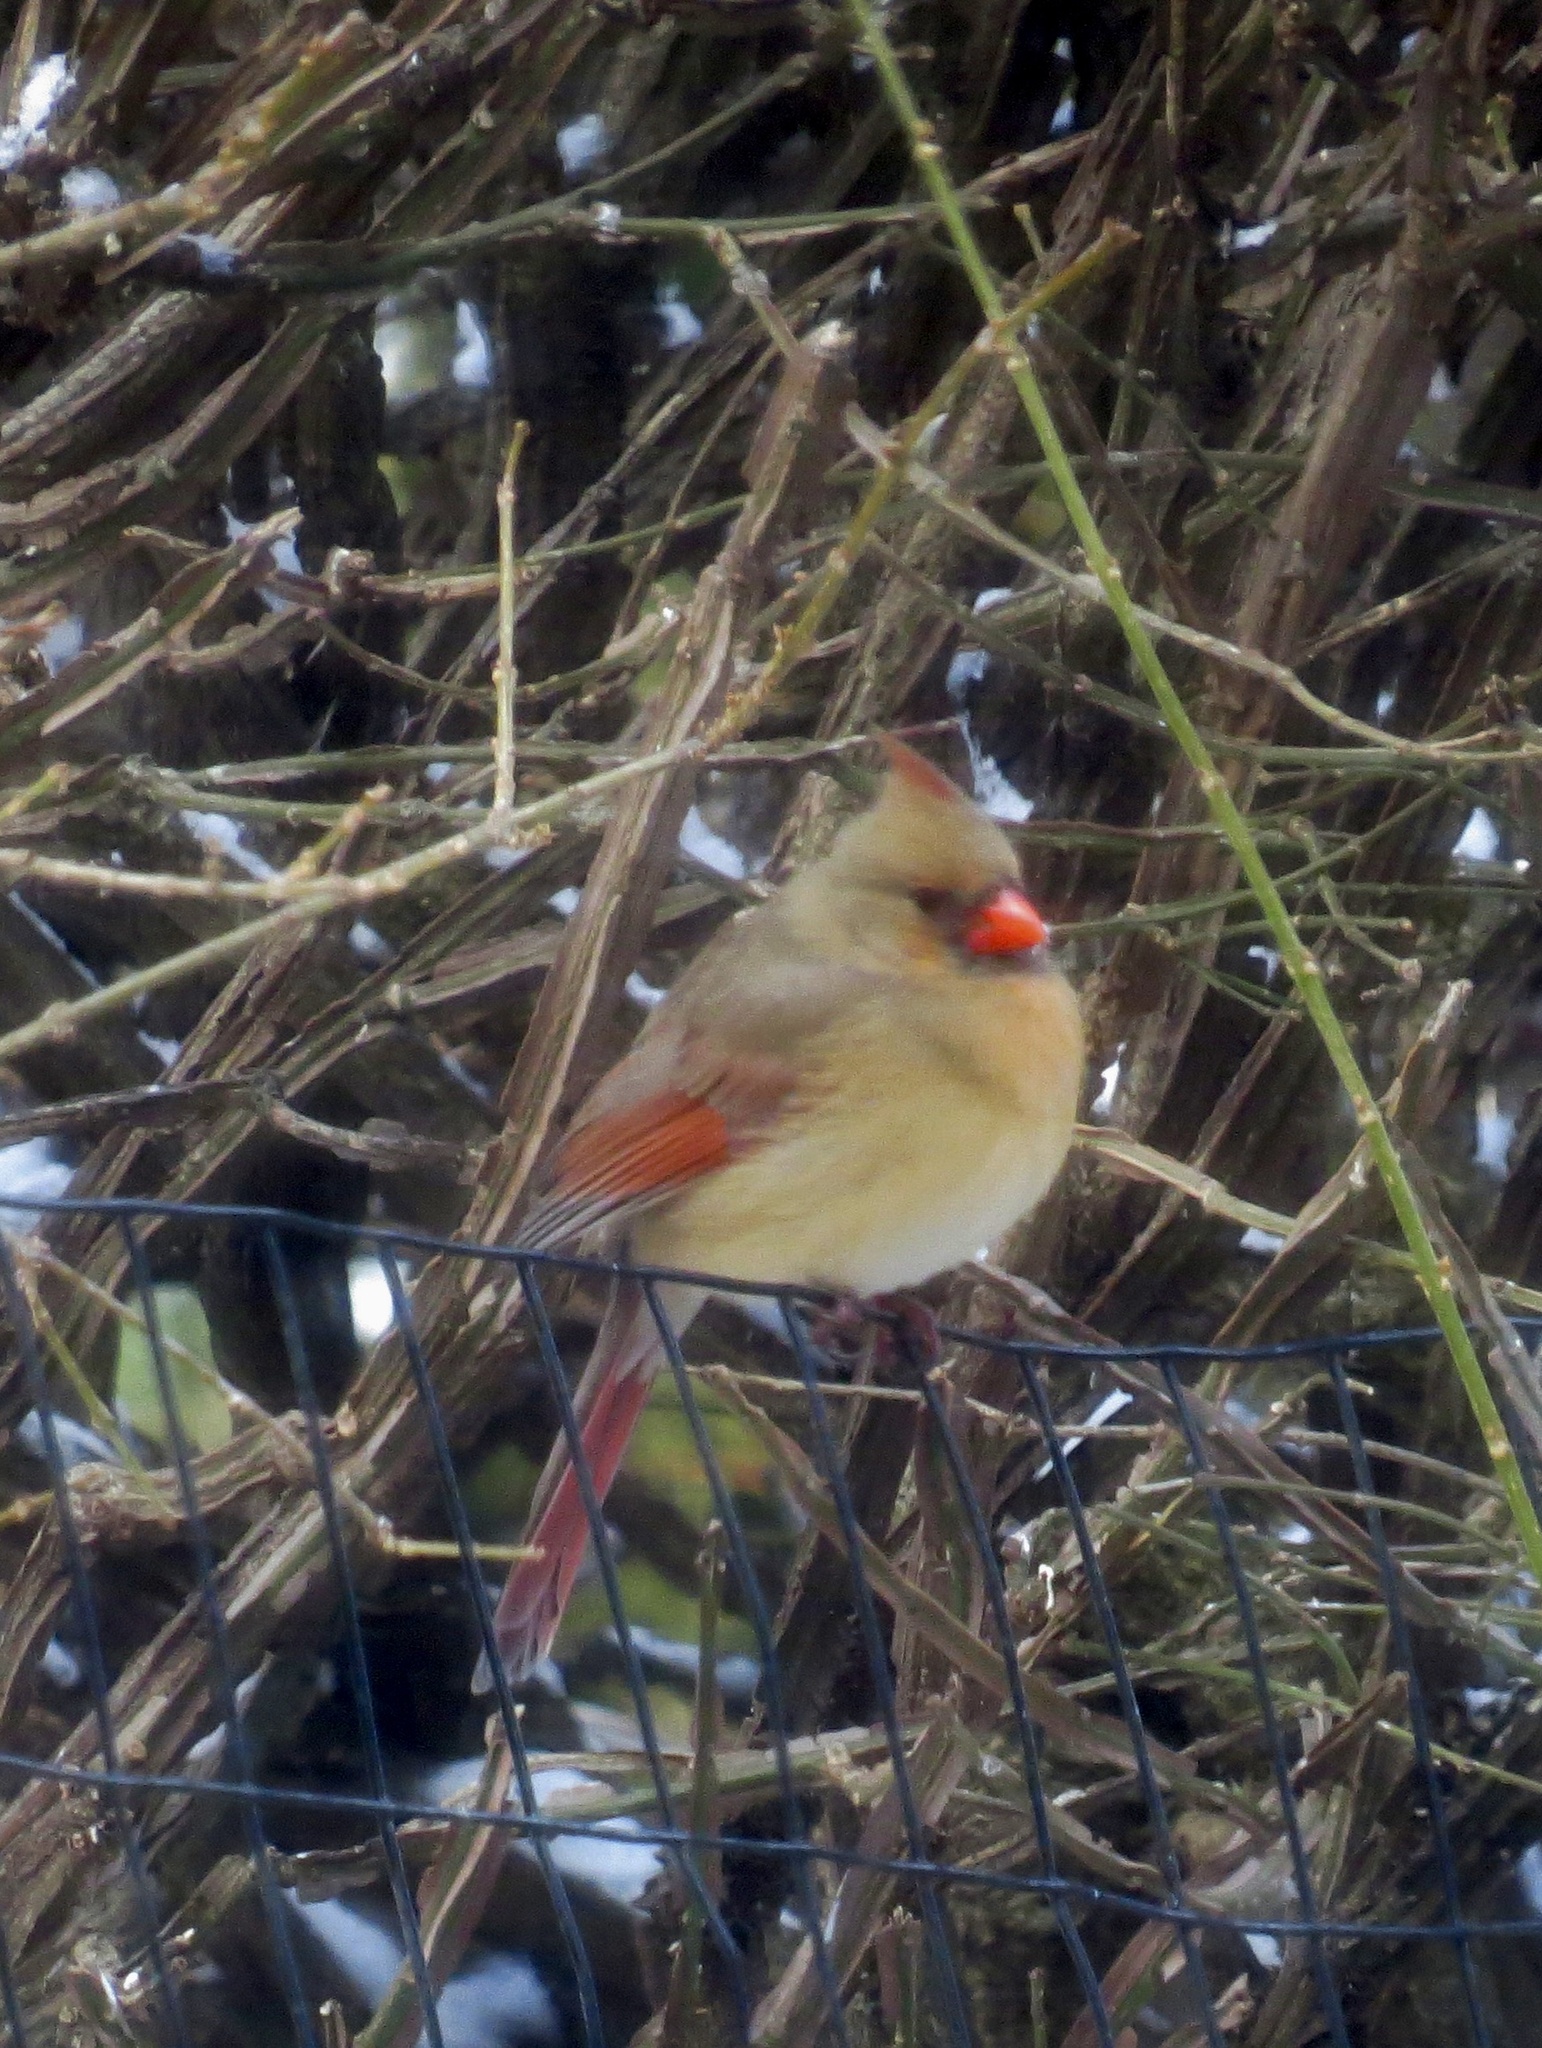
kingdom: Animalia
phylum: Chordata
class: Aves
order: Passeriformes
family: Cardinalidae
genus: Cardinalis
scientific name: Cardinalis cardinalis
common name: Northern cardinal
